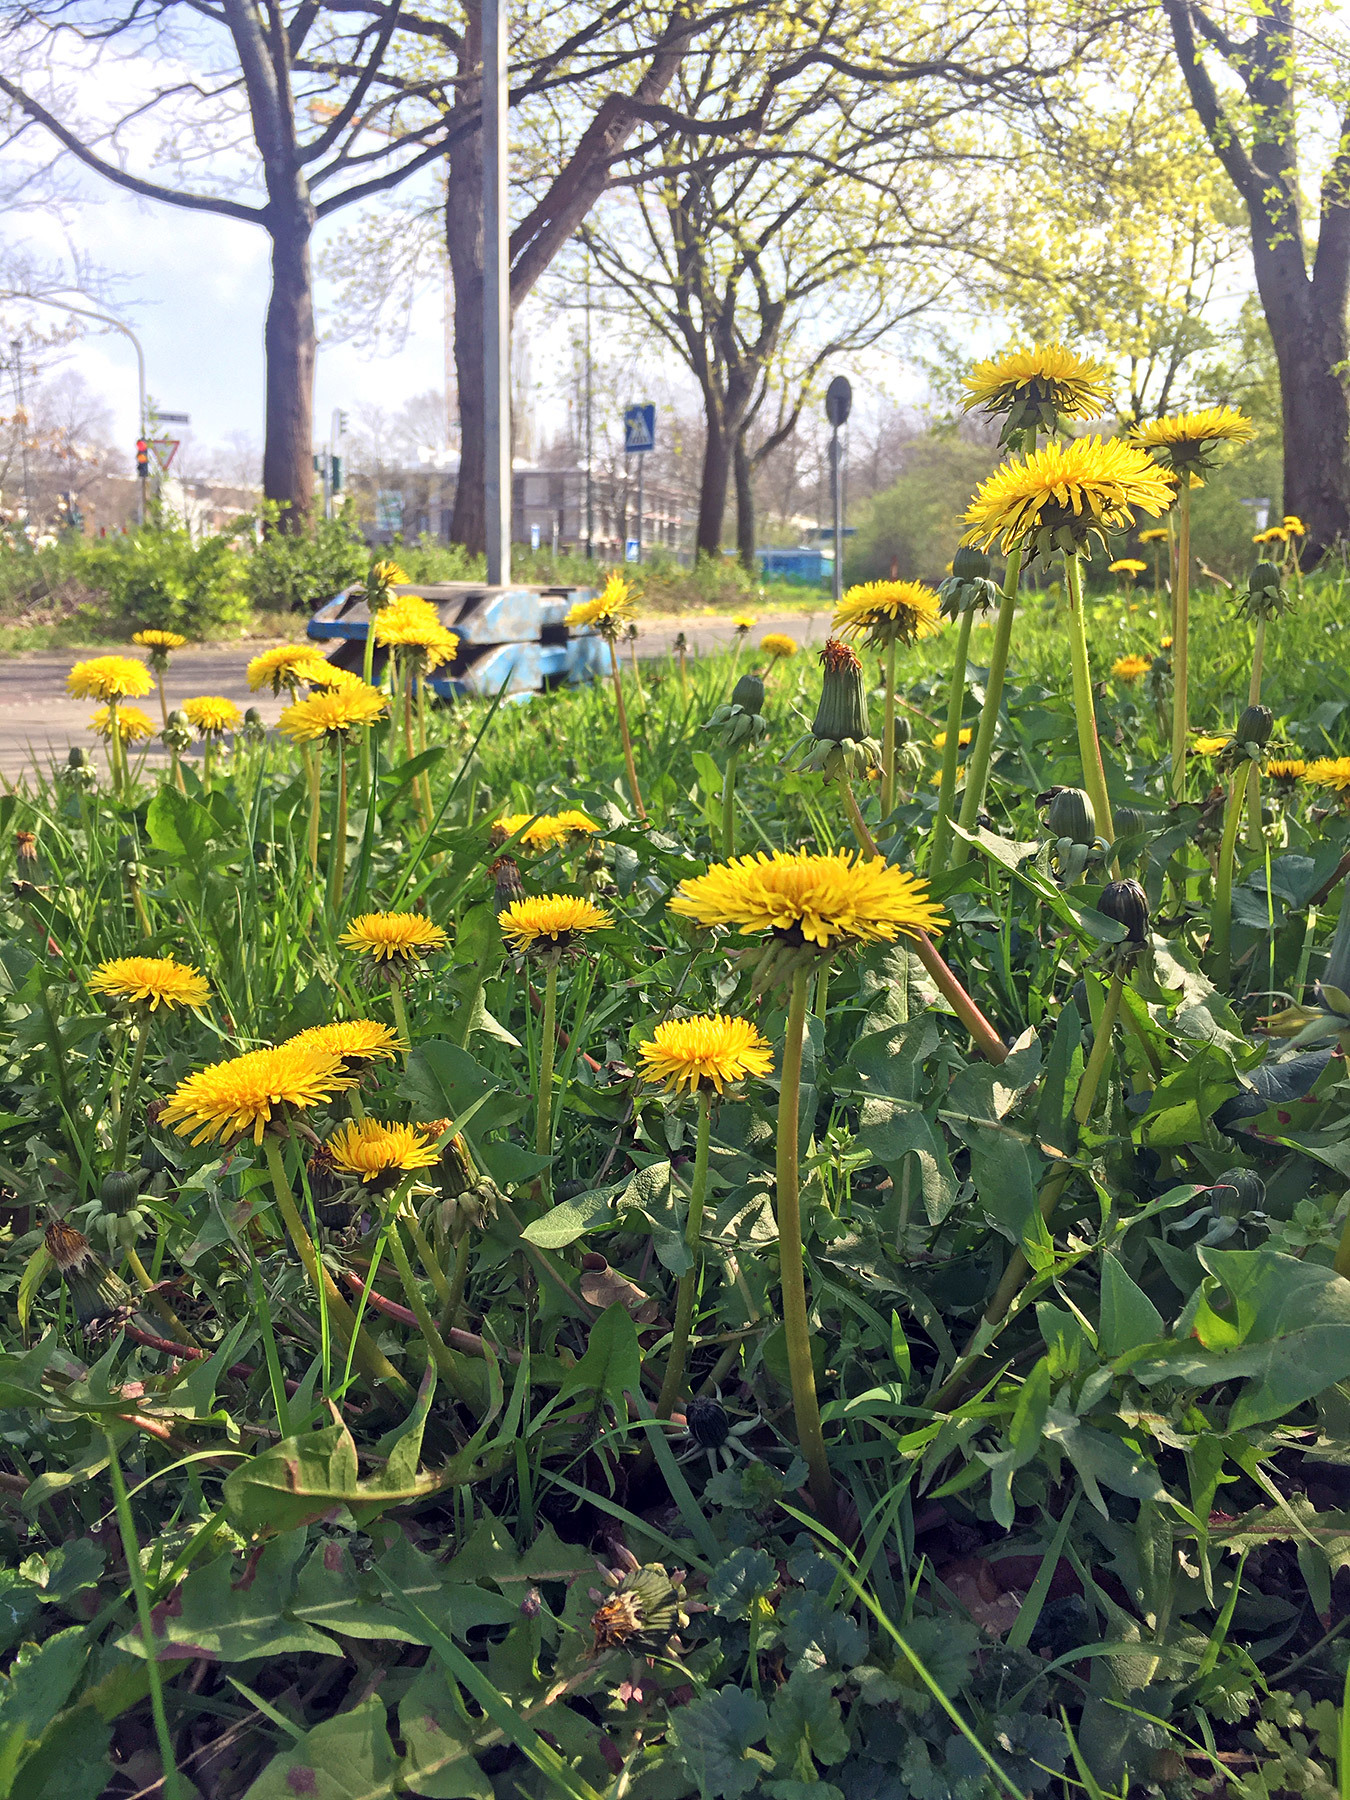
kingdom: Plantae
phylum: Tracheophyta
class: Magnoliopsida
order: Asterales
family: Asteraceae
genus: Taraxacum
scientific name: Taraxacum officinale
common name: Common dandelion
